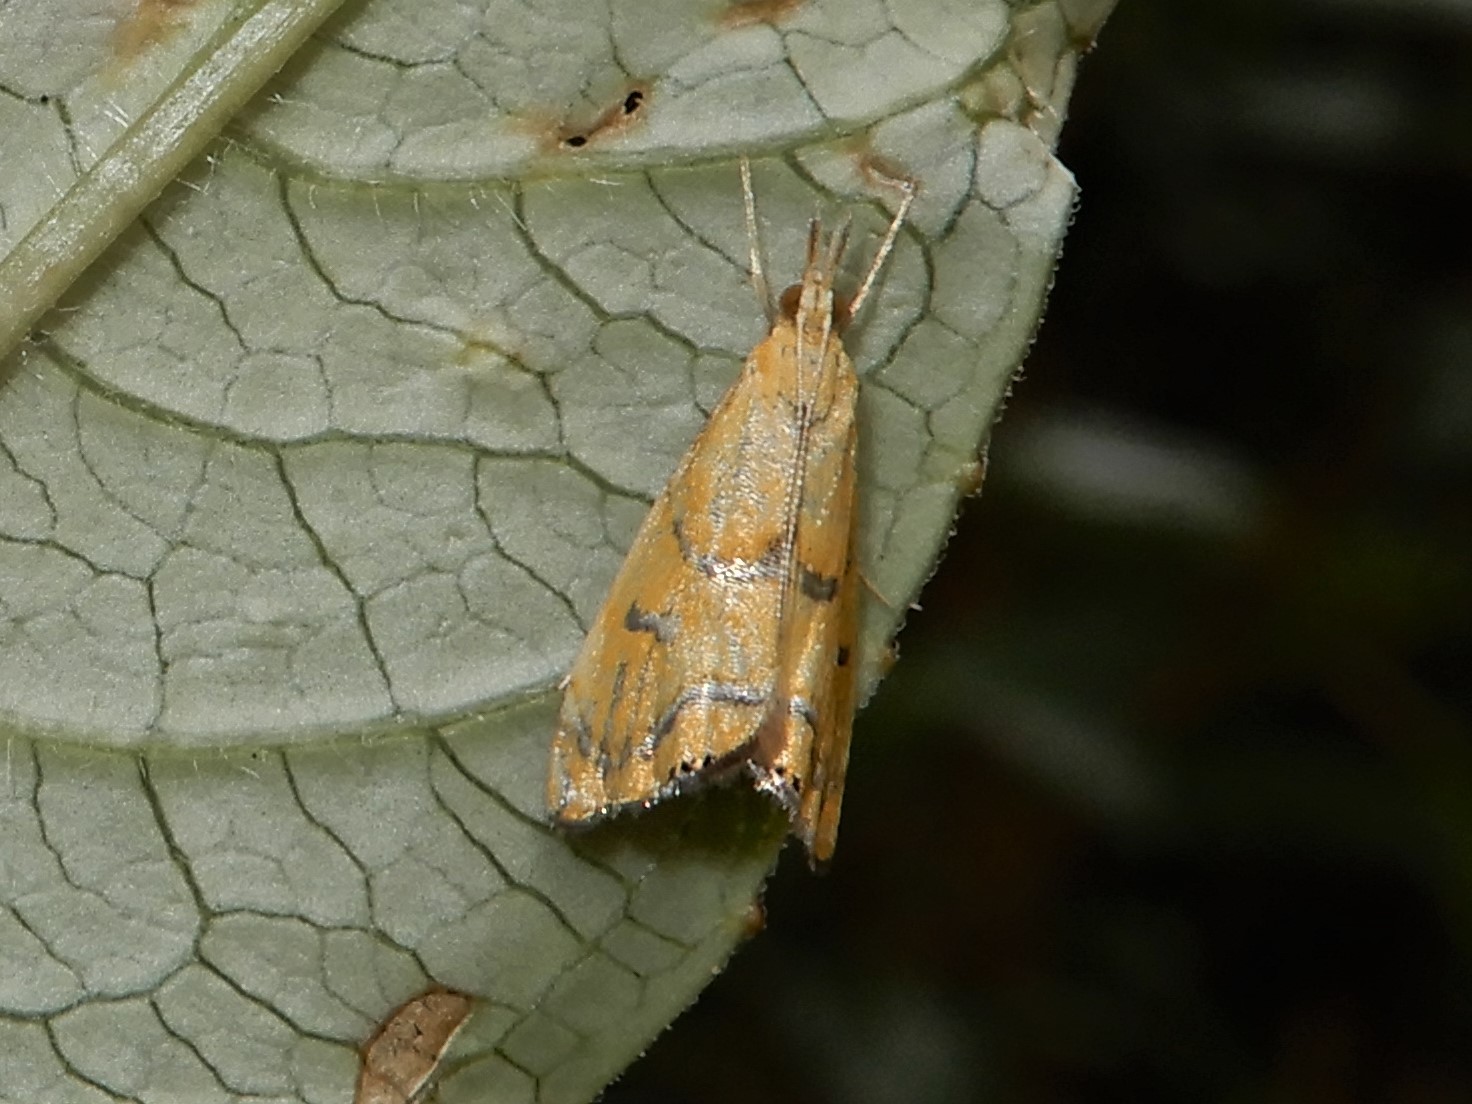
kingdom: Animalia
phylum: Arthropoda
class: Insecta
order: Lepidoptera
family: Crambidae
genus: Glaucocharis
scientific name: Glaucocharis auriscriptella
